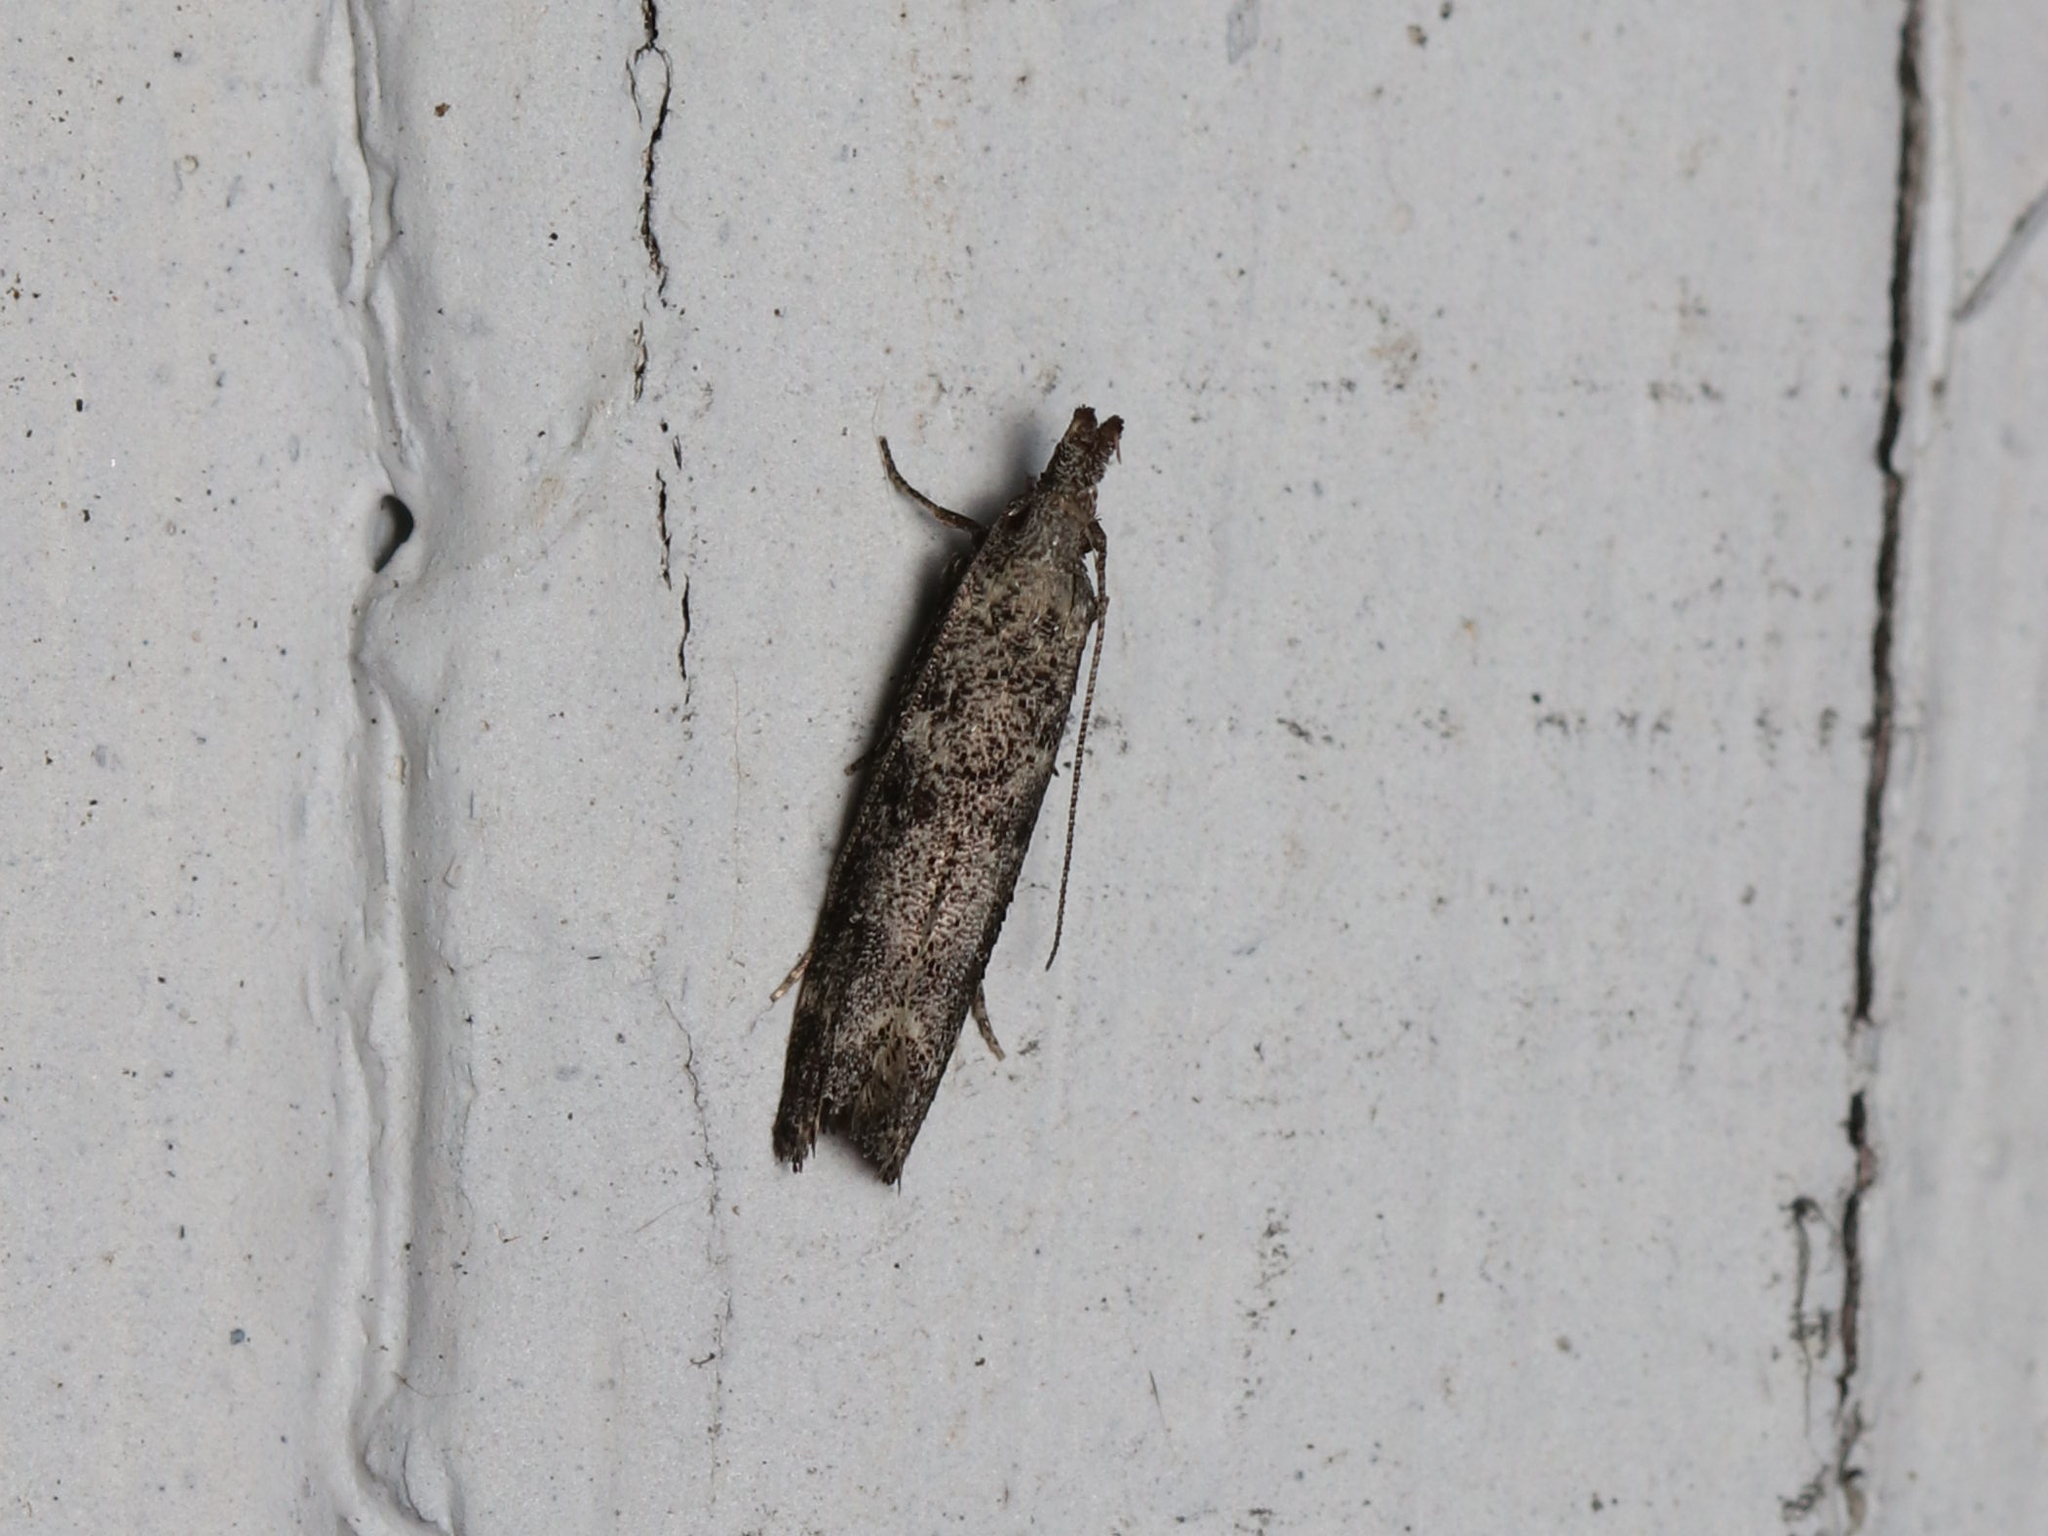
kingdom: Animalia
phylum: Arthropoda
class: Insecta
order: Lepidoptera
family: Gelechiidae
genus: Dichomeris
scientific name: Dichomeris inversella
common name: Inverse dichomeris moth
